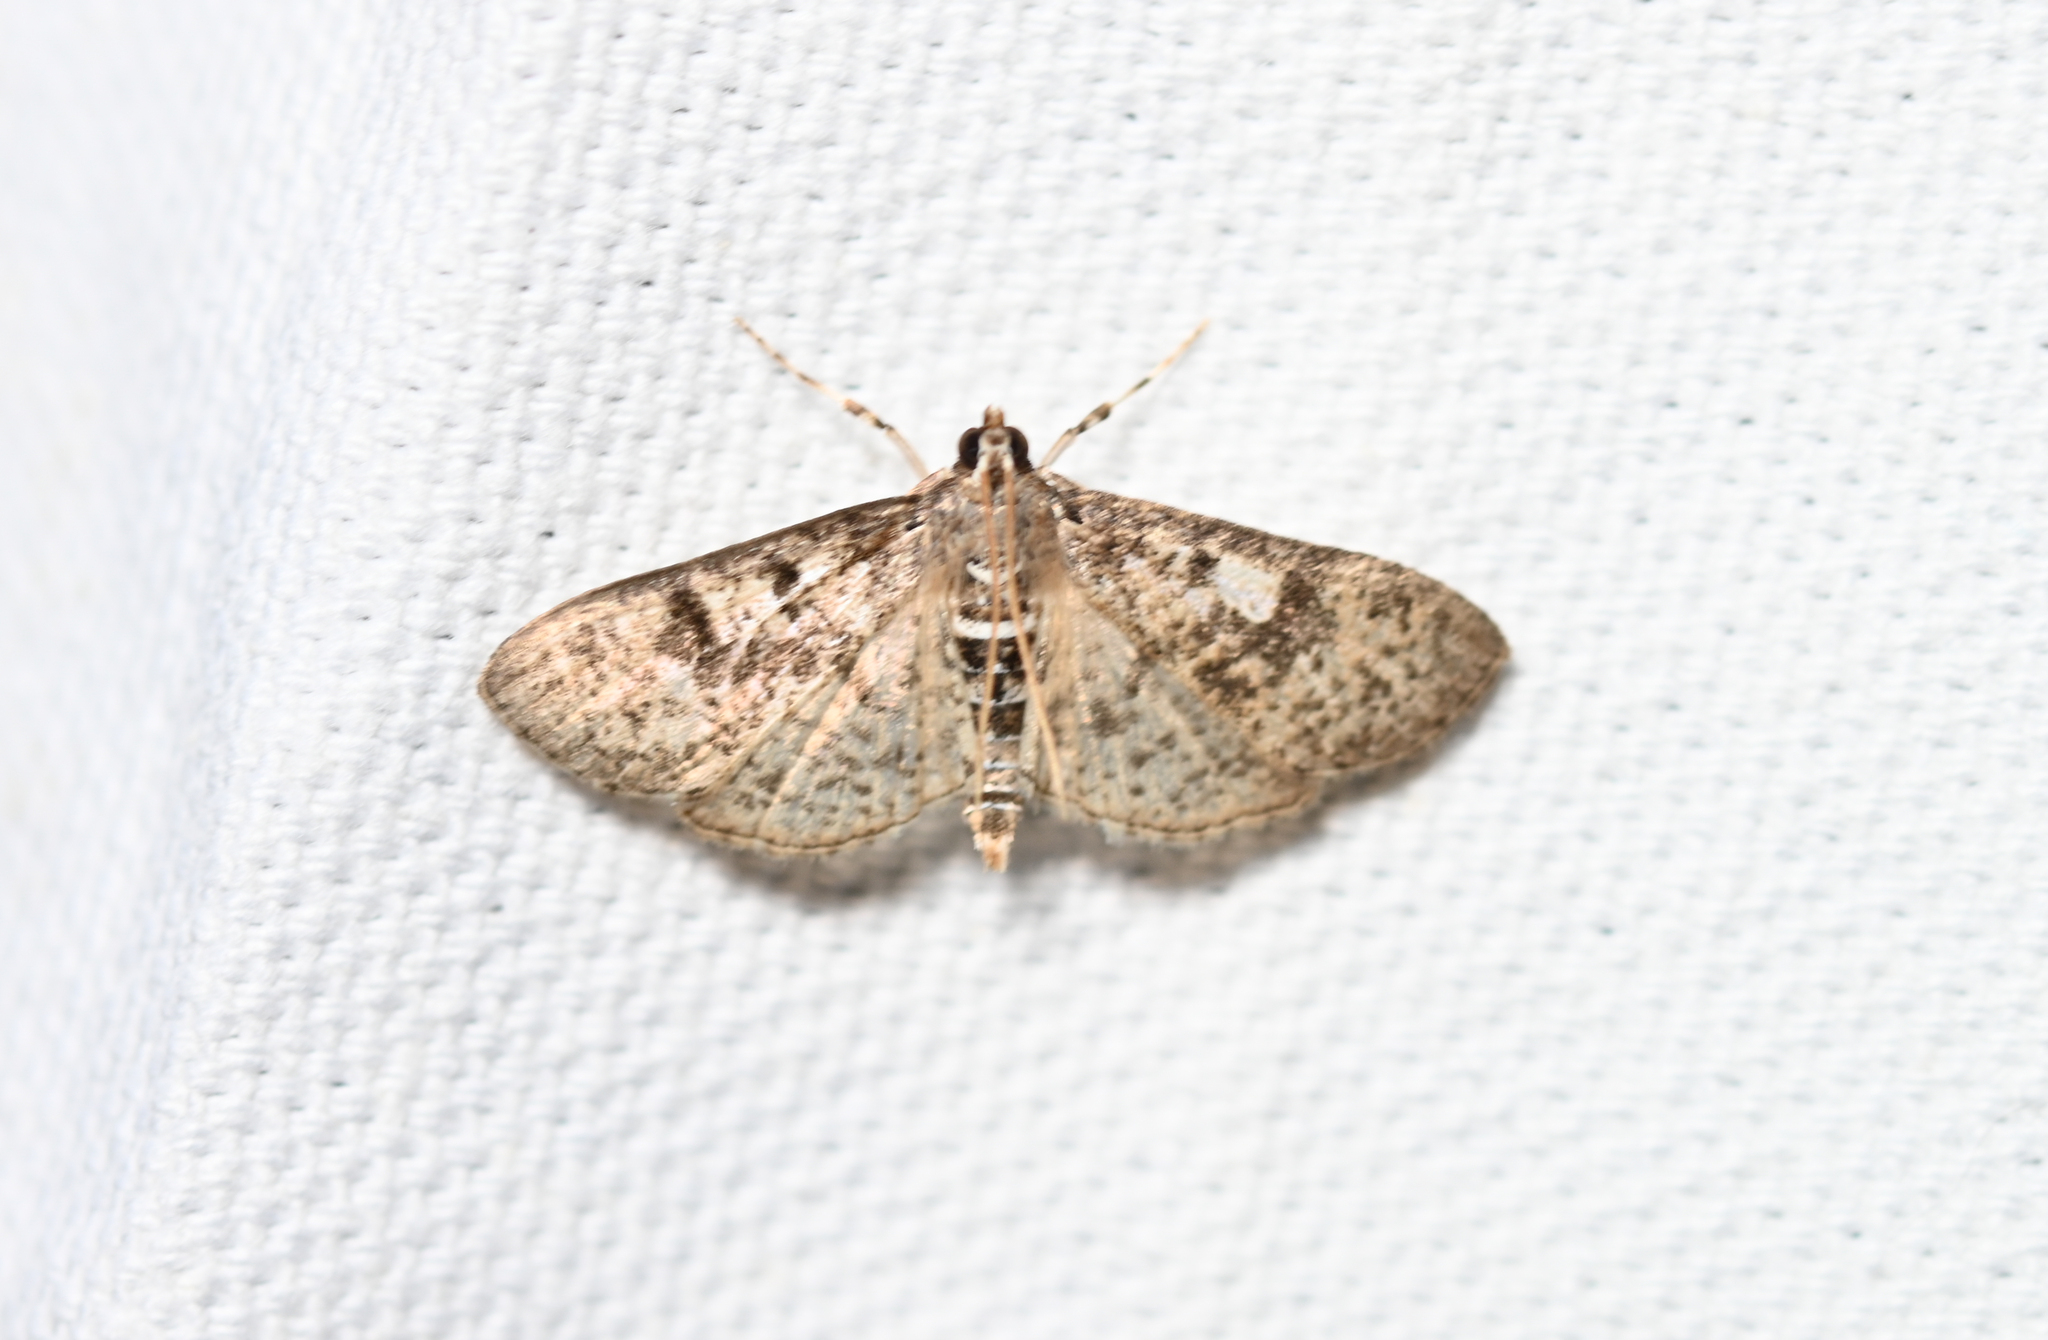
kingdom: Animalia
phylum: Arthropoda
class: Insecta
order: Lepidoptera
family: Crambidae
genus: Palpita
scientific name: Palpita magniferalis
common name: Splendid palpita moth
